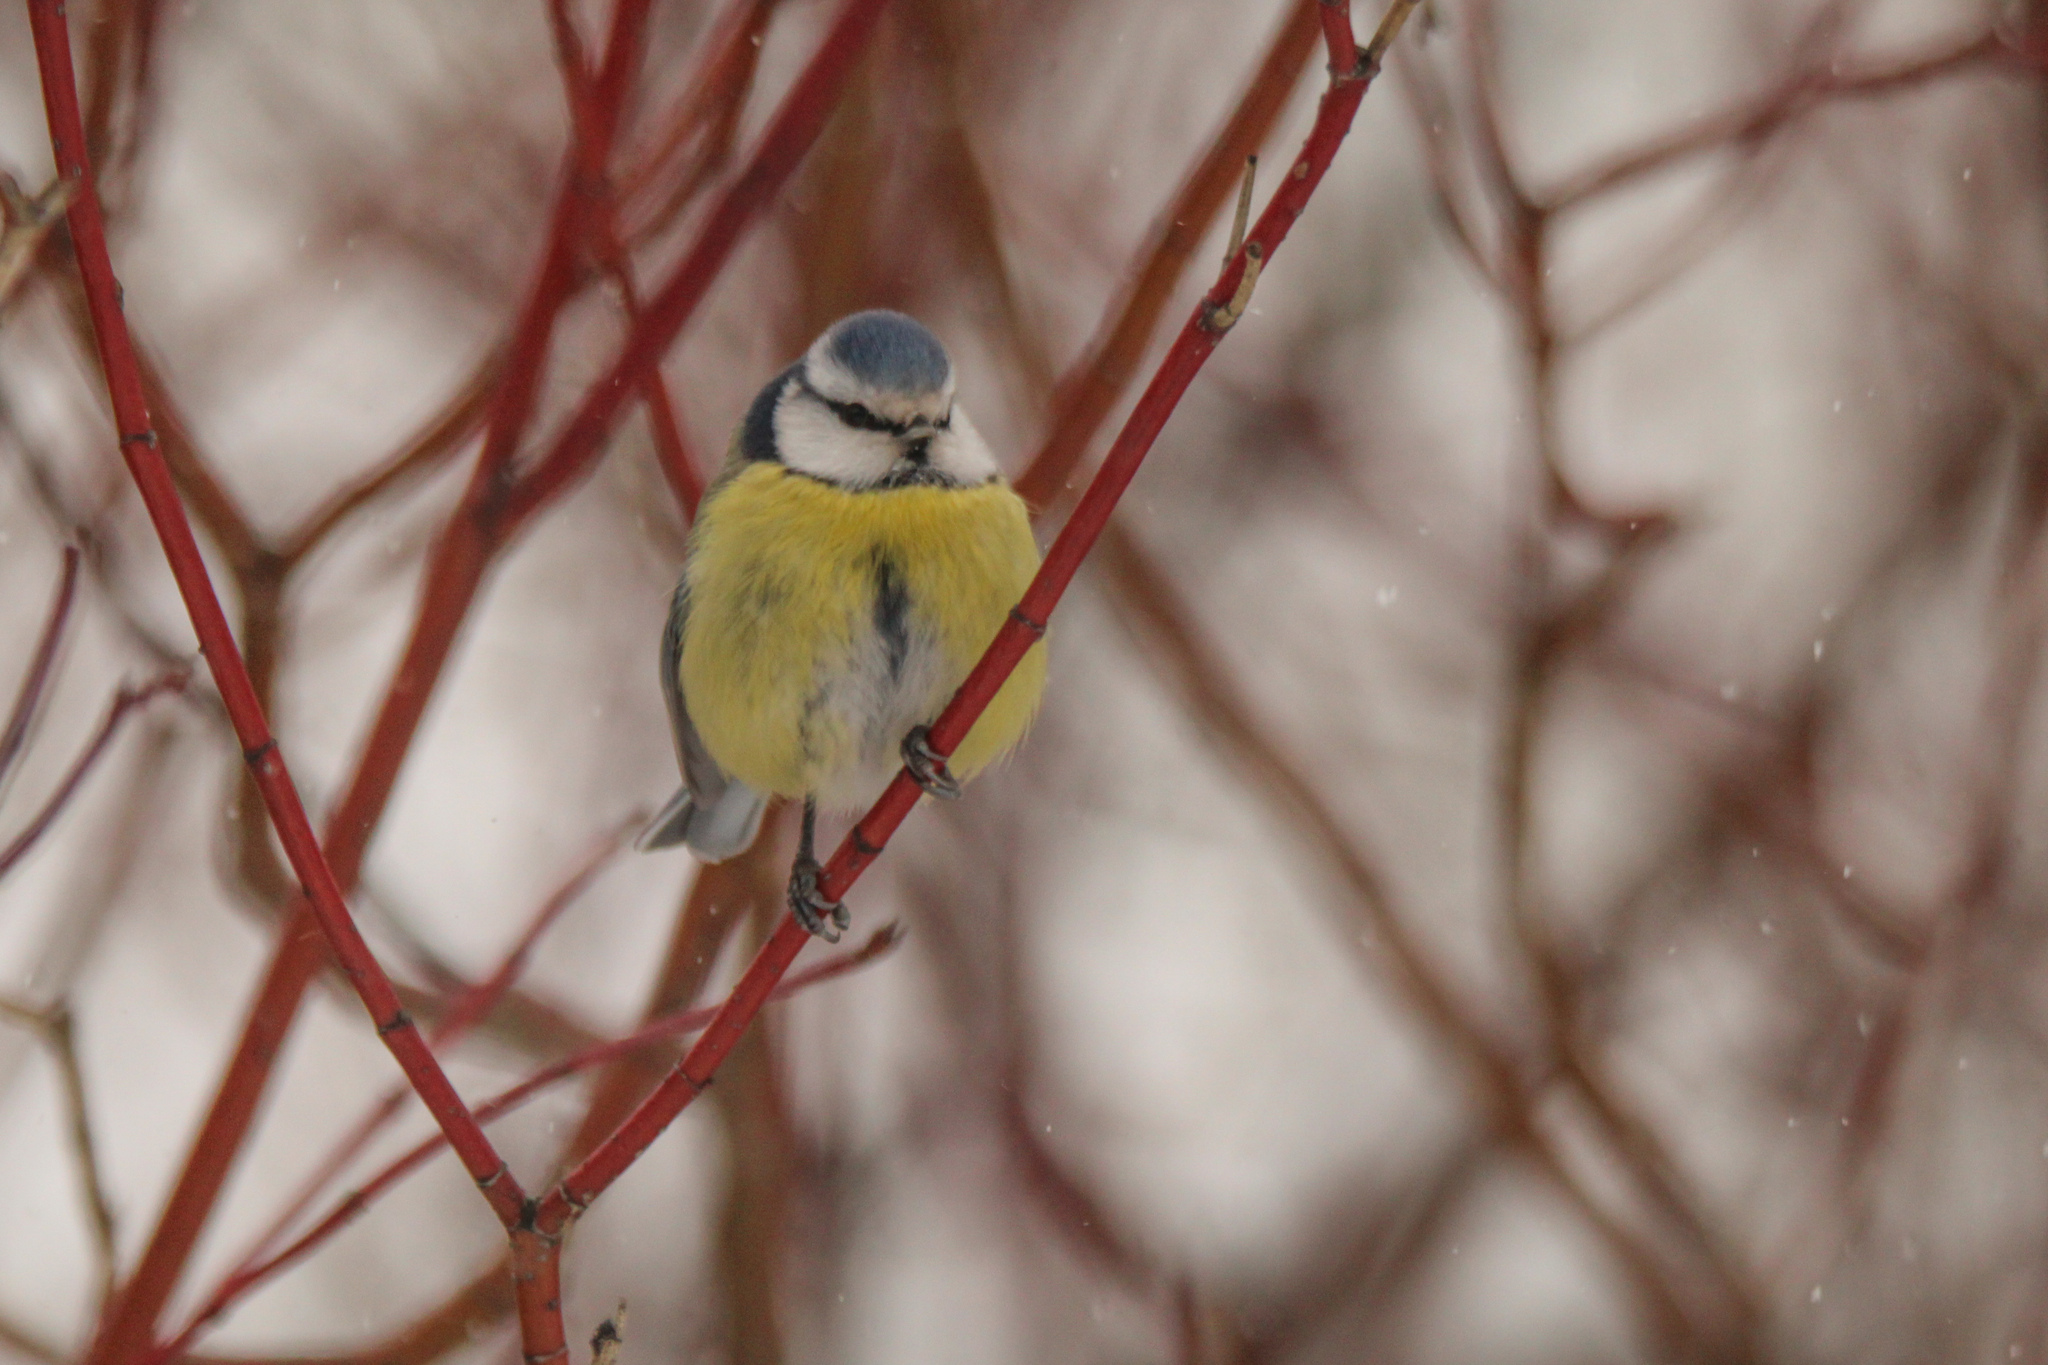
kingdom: Animalia
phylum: Chordata
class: Aves
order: Passeriformes
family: Paridae
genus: Cyanistes
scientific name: Cyanistes caeruleus
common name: Eurasian blue tit
